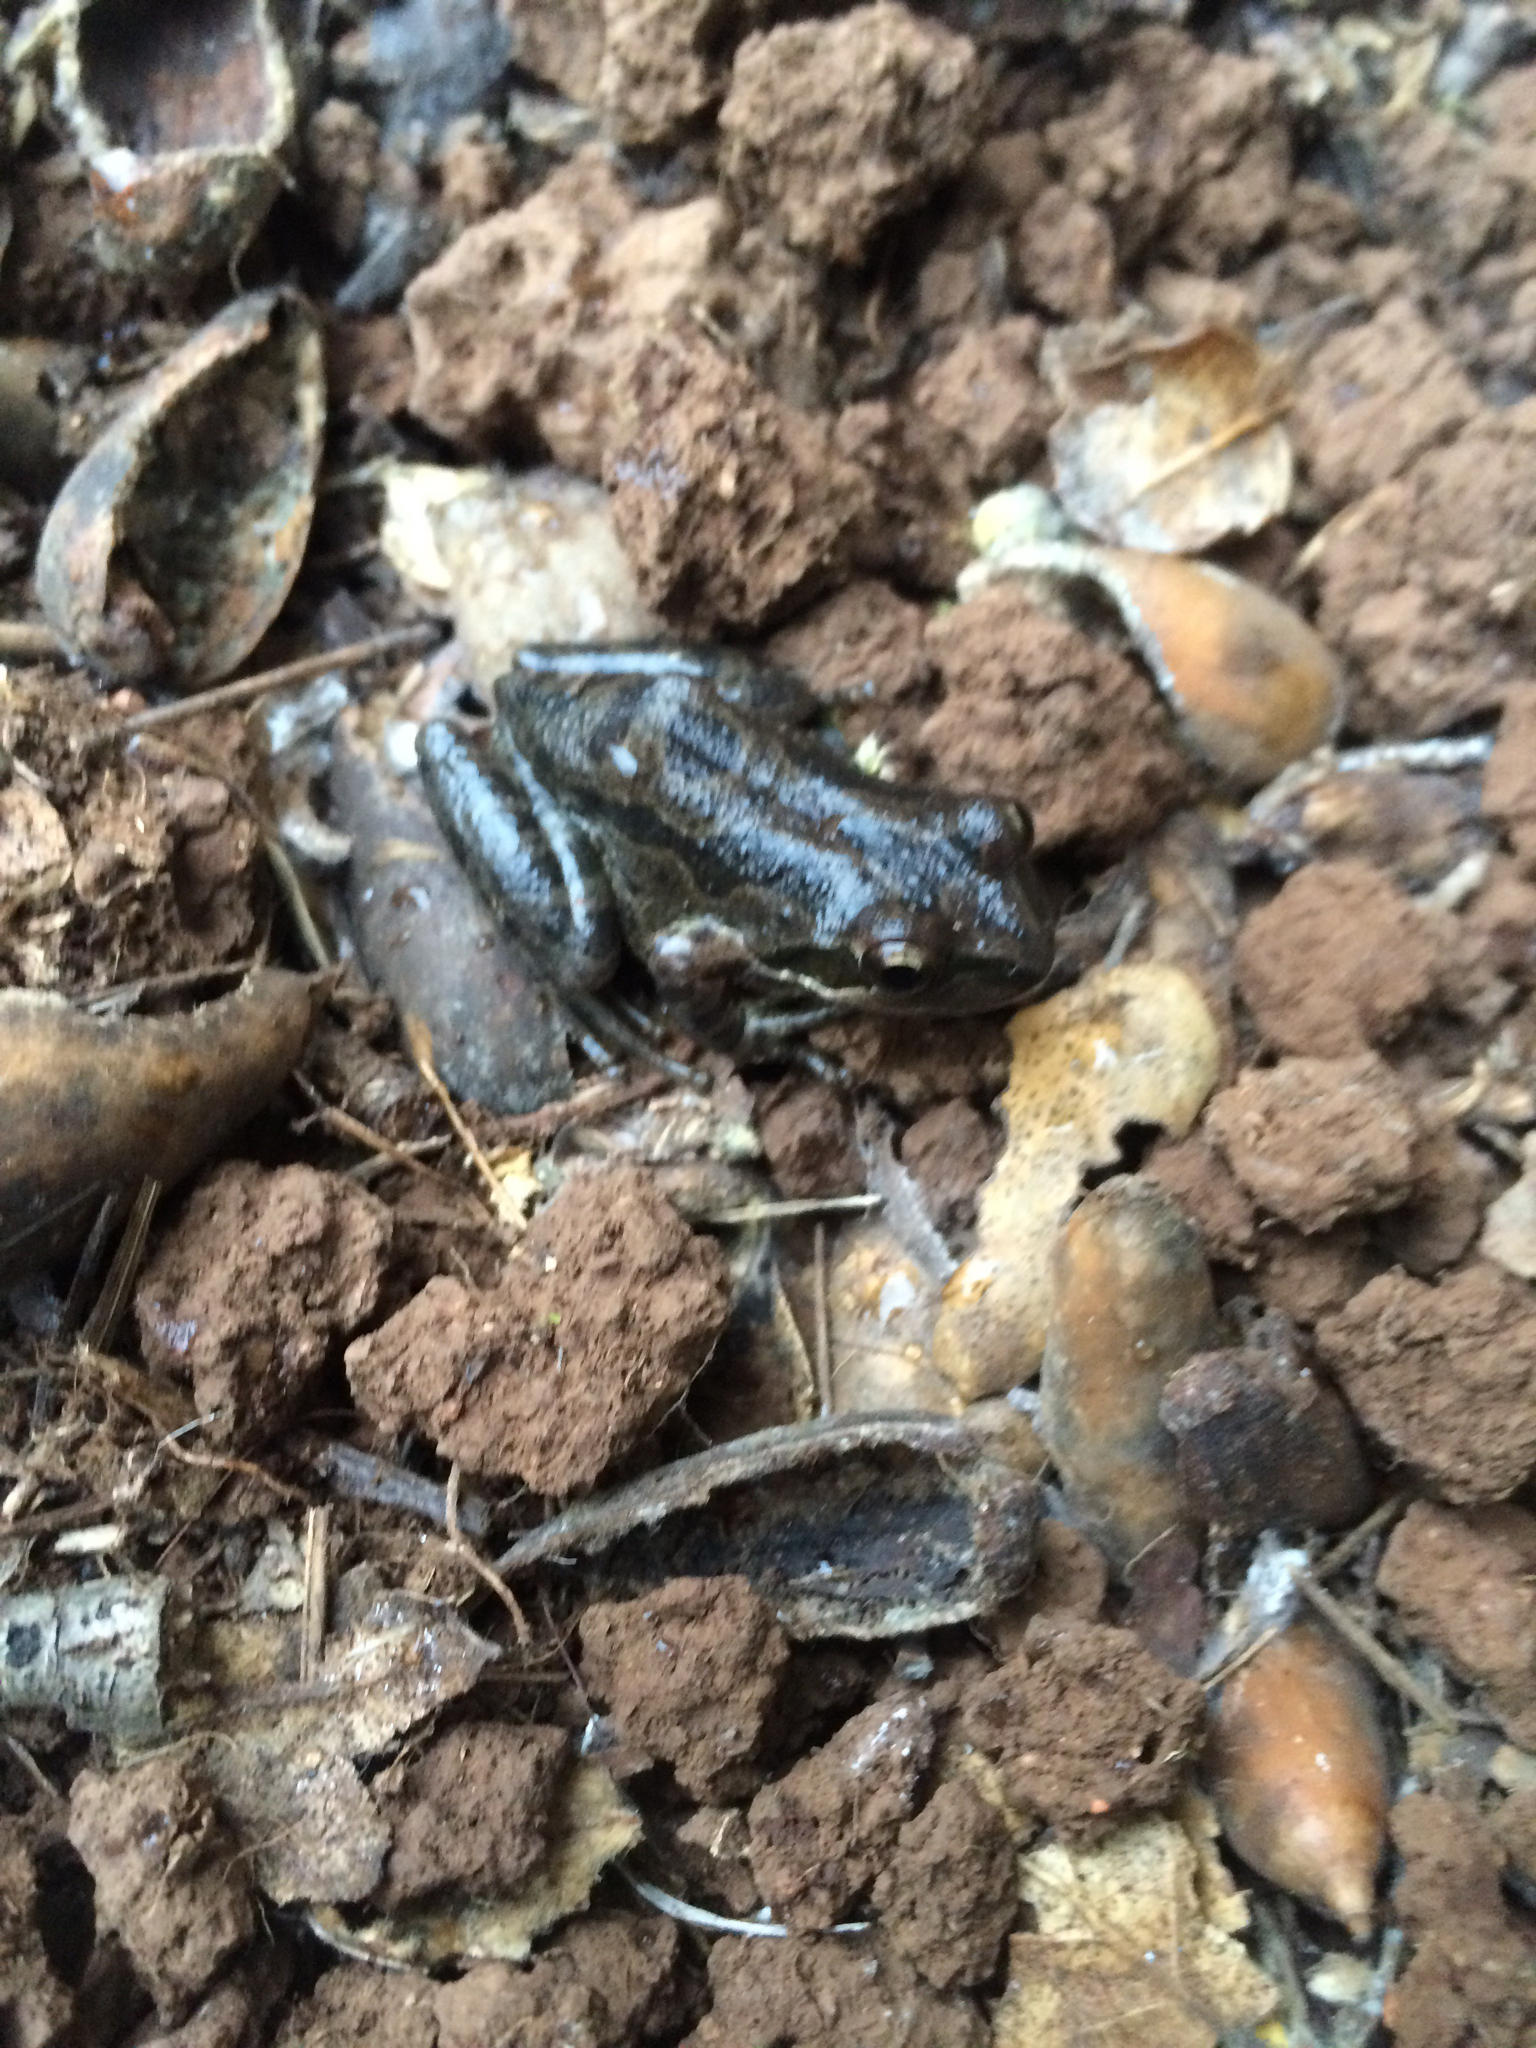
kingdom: Animalia
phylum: Chordata
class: Amphibia
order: Anura
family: Hylidae
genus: Pseudacris
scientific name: Pseudacris regilla
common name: Pacific chorus frog
